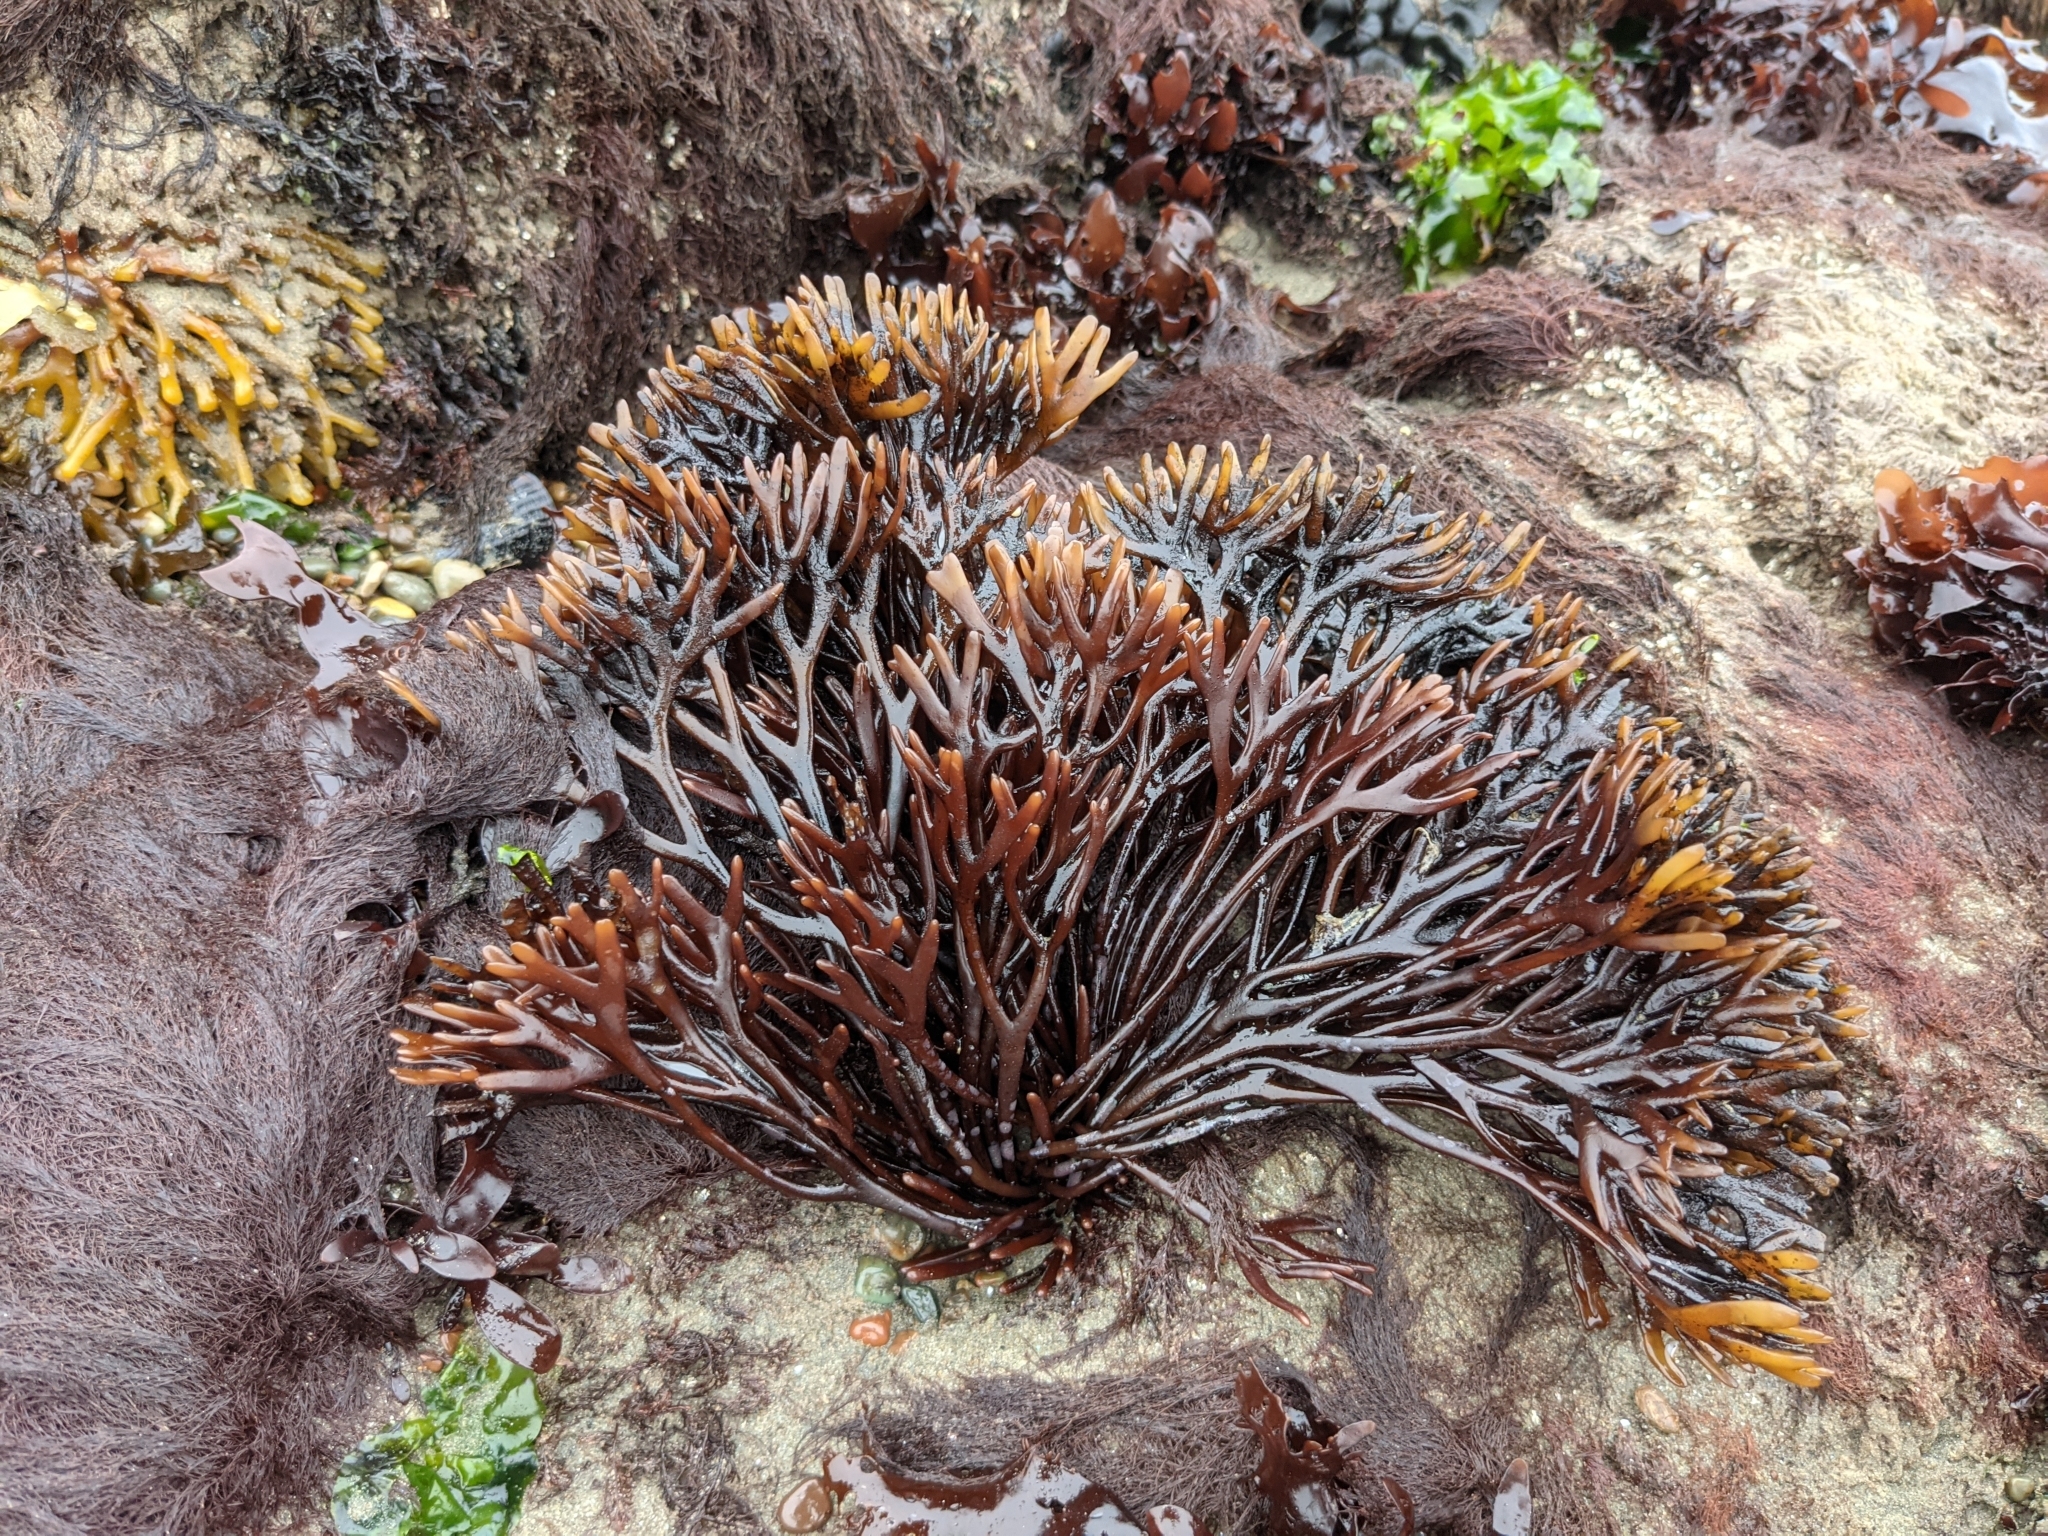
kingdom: Plantae
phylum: Rhodophyta
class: Florideophyceae
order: Gigartinales
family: Phyllophoraceae
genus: Ahnfeltiopsis
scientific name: Ahnfeltiopsis linearis
